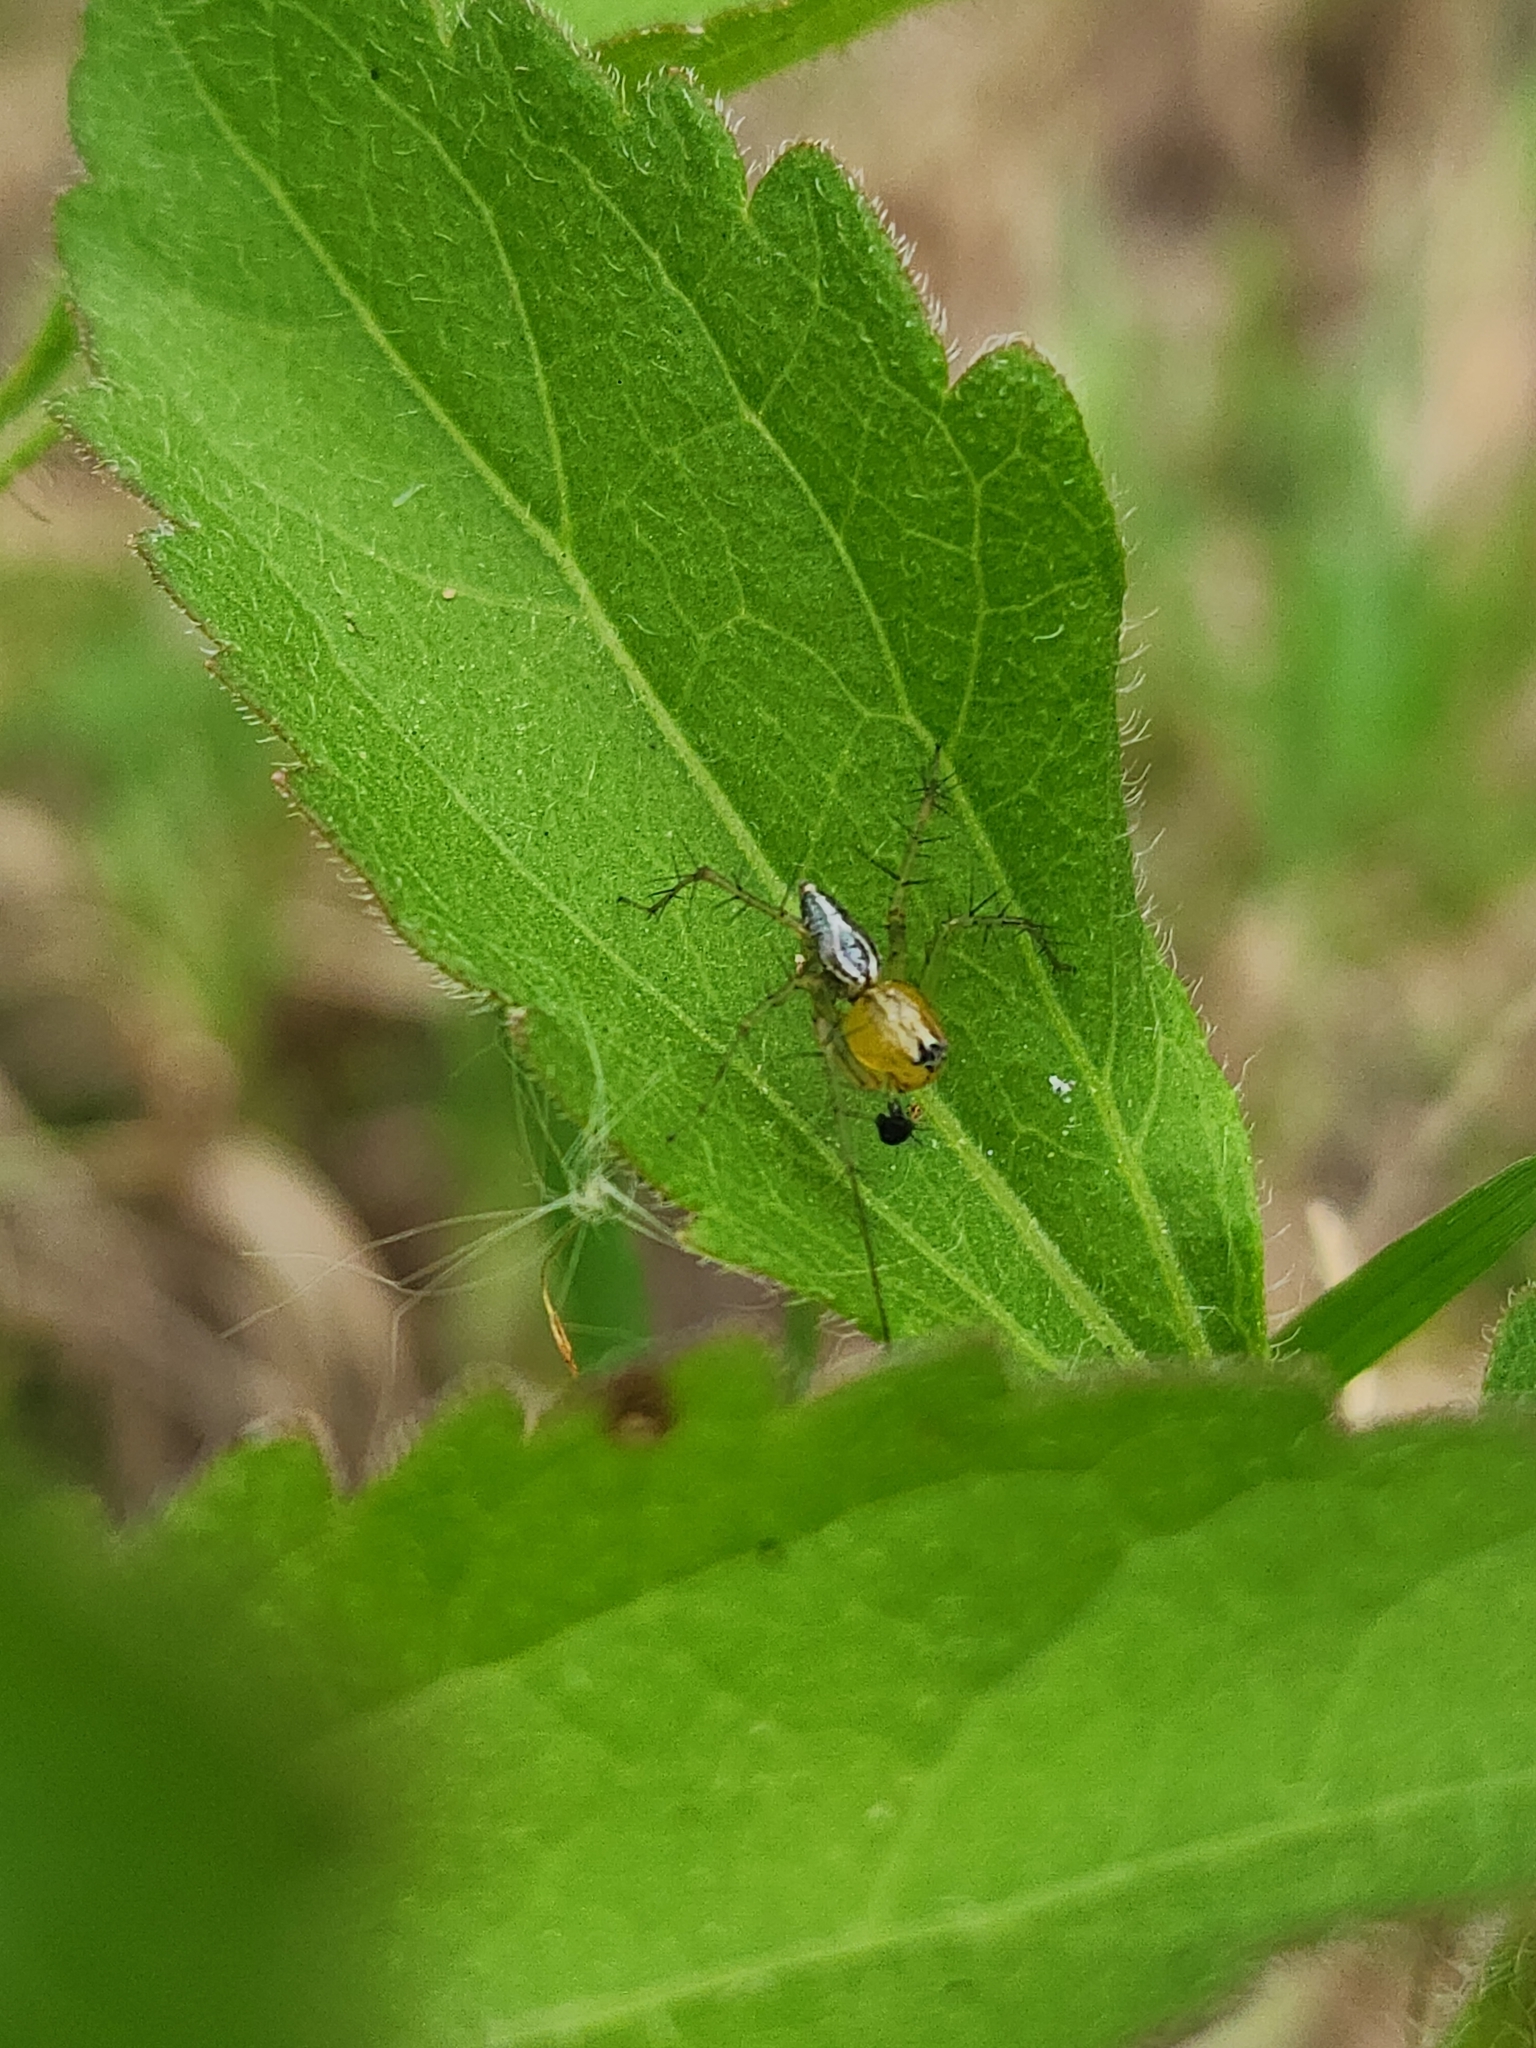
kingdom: Animalia
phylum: Arthropoda
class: Arachnida
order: Araneae
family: Oxyopidae
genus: Oxyopes
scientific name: Oxyopes salticus
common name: Lynx spiders
